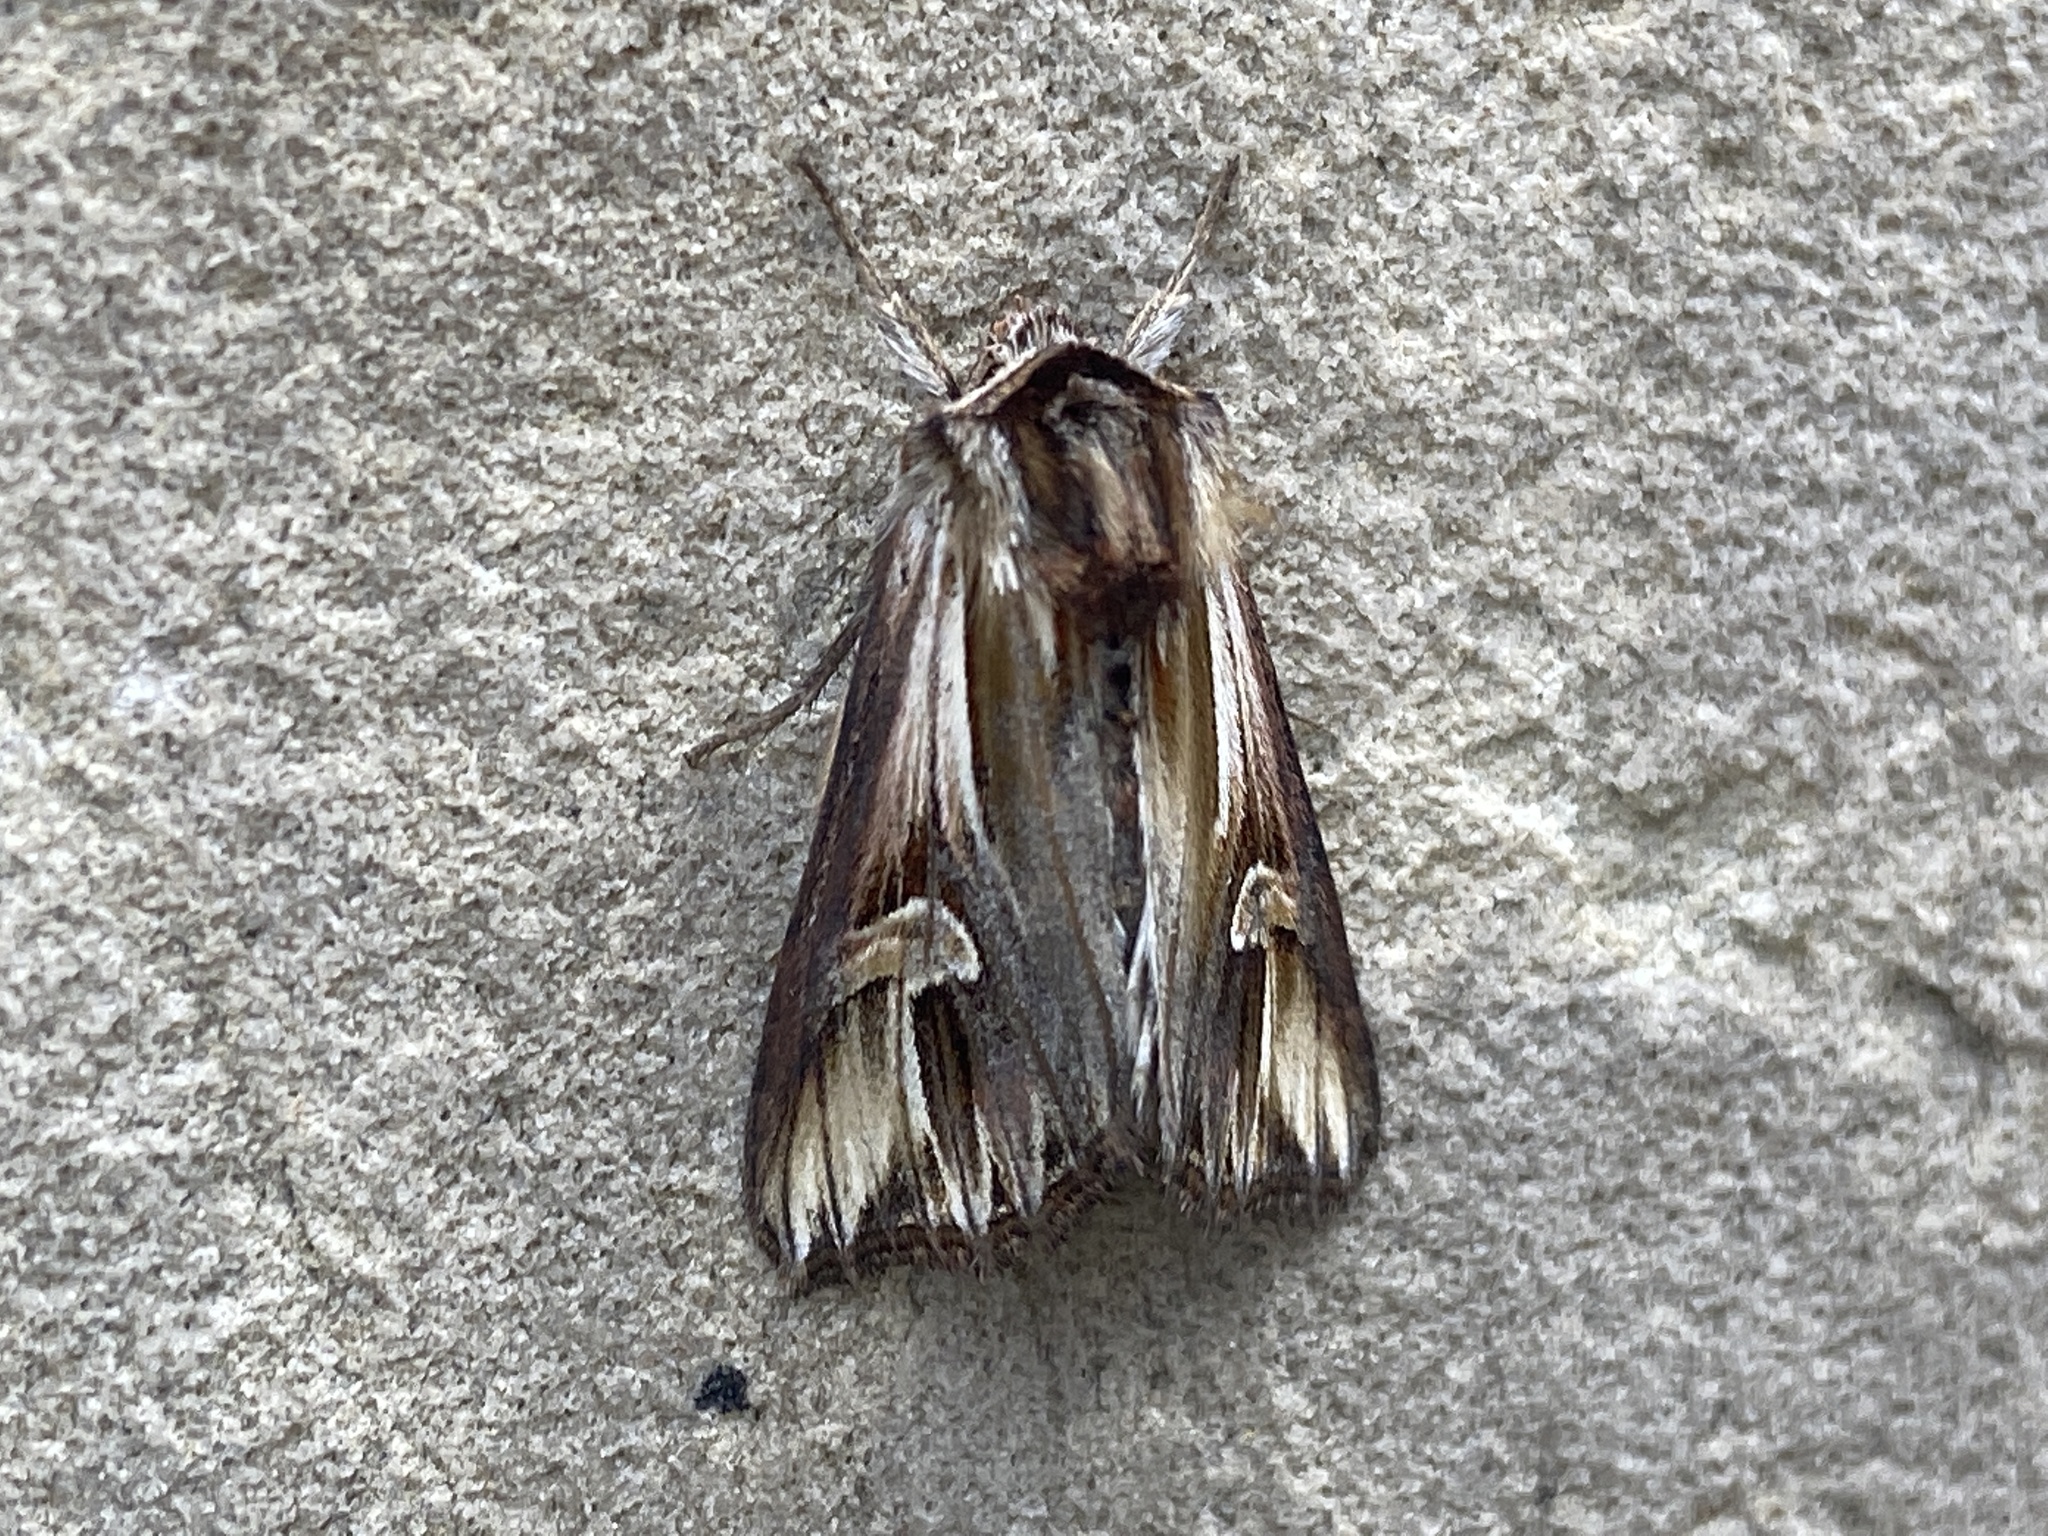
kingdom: Animalia
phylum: Arthropoda
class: Insecta
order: Lepidoptera
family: Noctuidae
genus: Actinotia
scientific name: Actinotia polyodon
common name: Purple cloud
